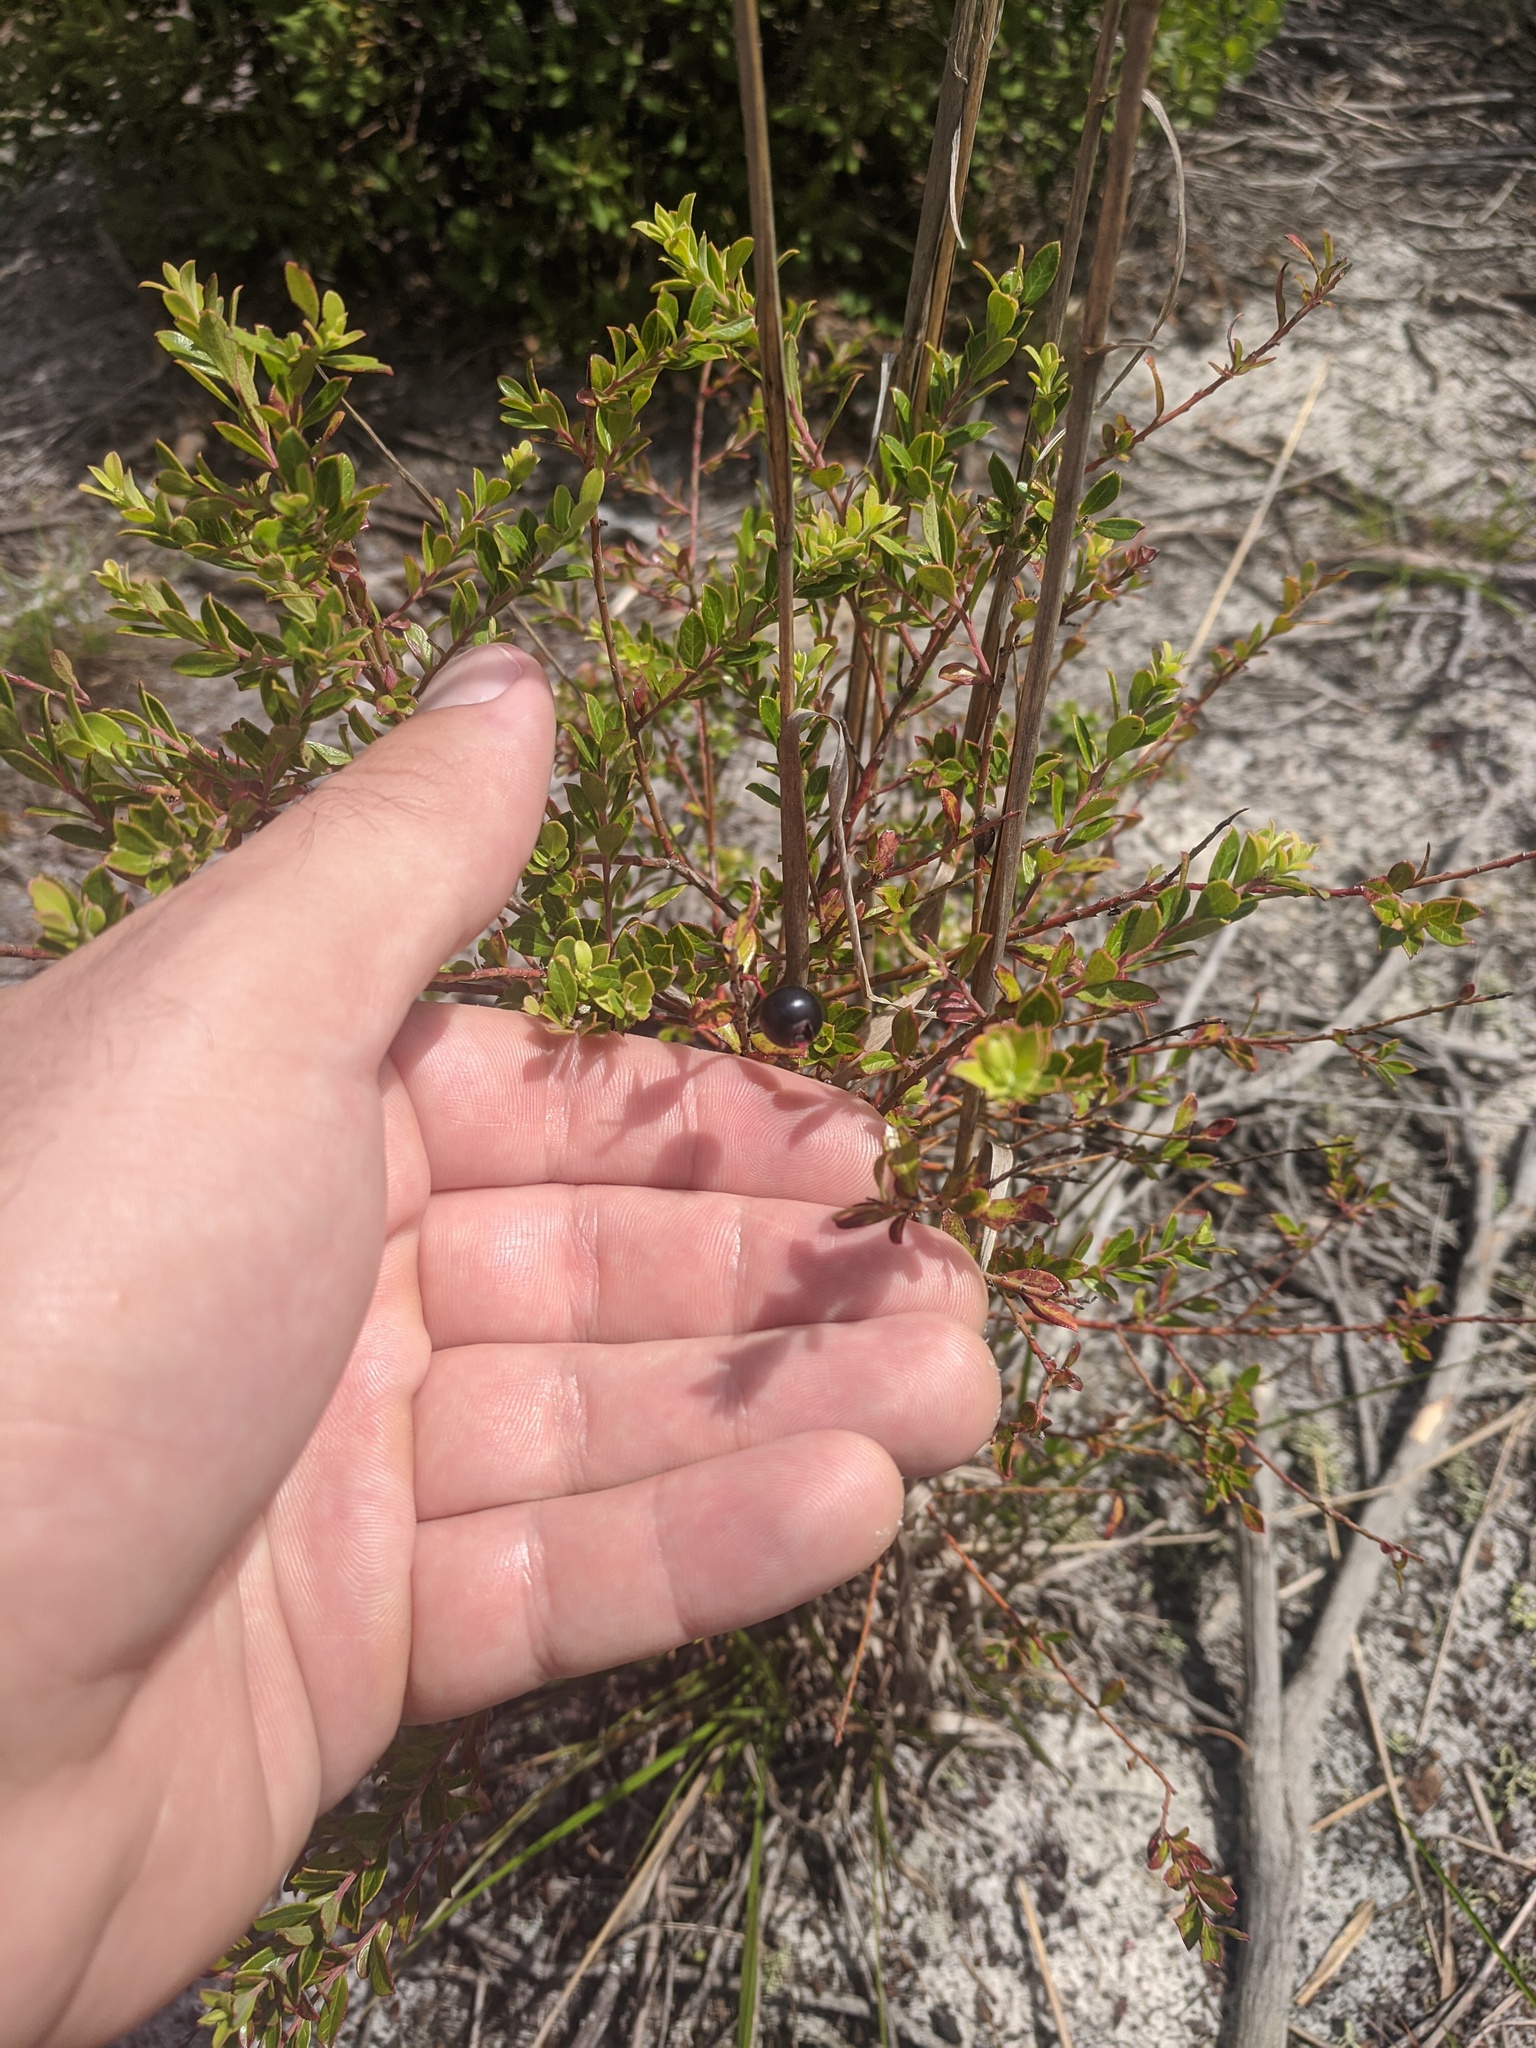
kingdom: Plantae
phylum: Tracheophyta
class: Magnoliopsida
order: Ericales
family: Ericaceae
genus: Vaccinium
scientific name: Vaccinium myrsinites
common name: Evergreen blueberry
